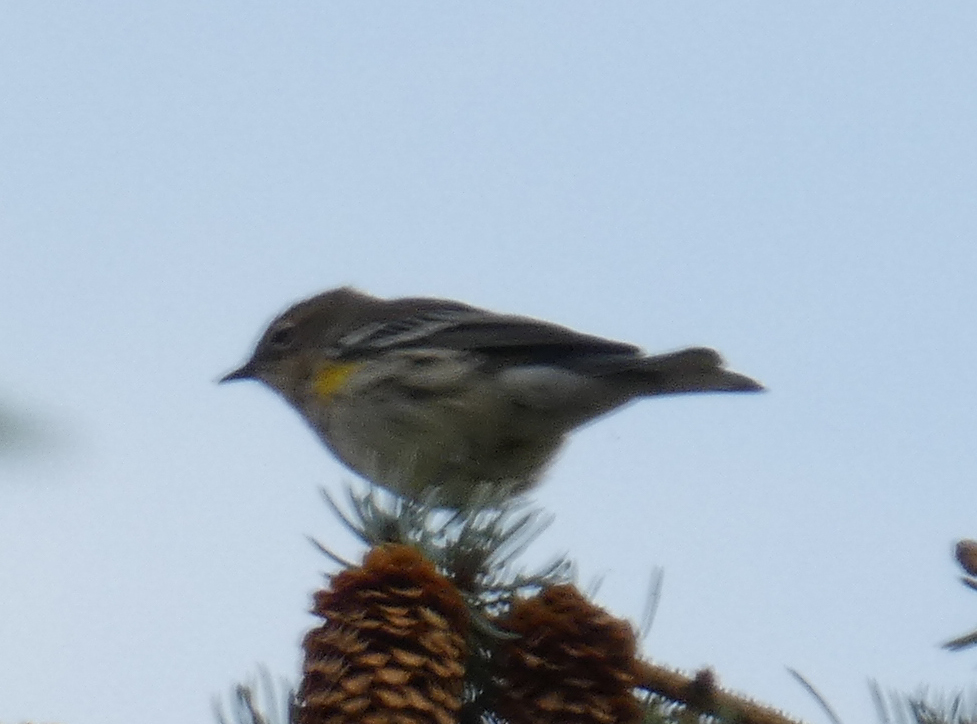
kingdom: Animalia
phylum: Chordata
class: Aves
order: Passeriformes
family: Parulidae
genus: Setophaga
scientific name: Setophaga coronata
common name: Myrtle warbler
